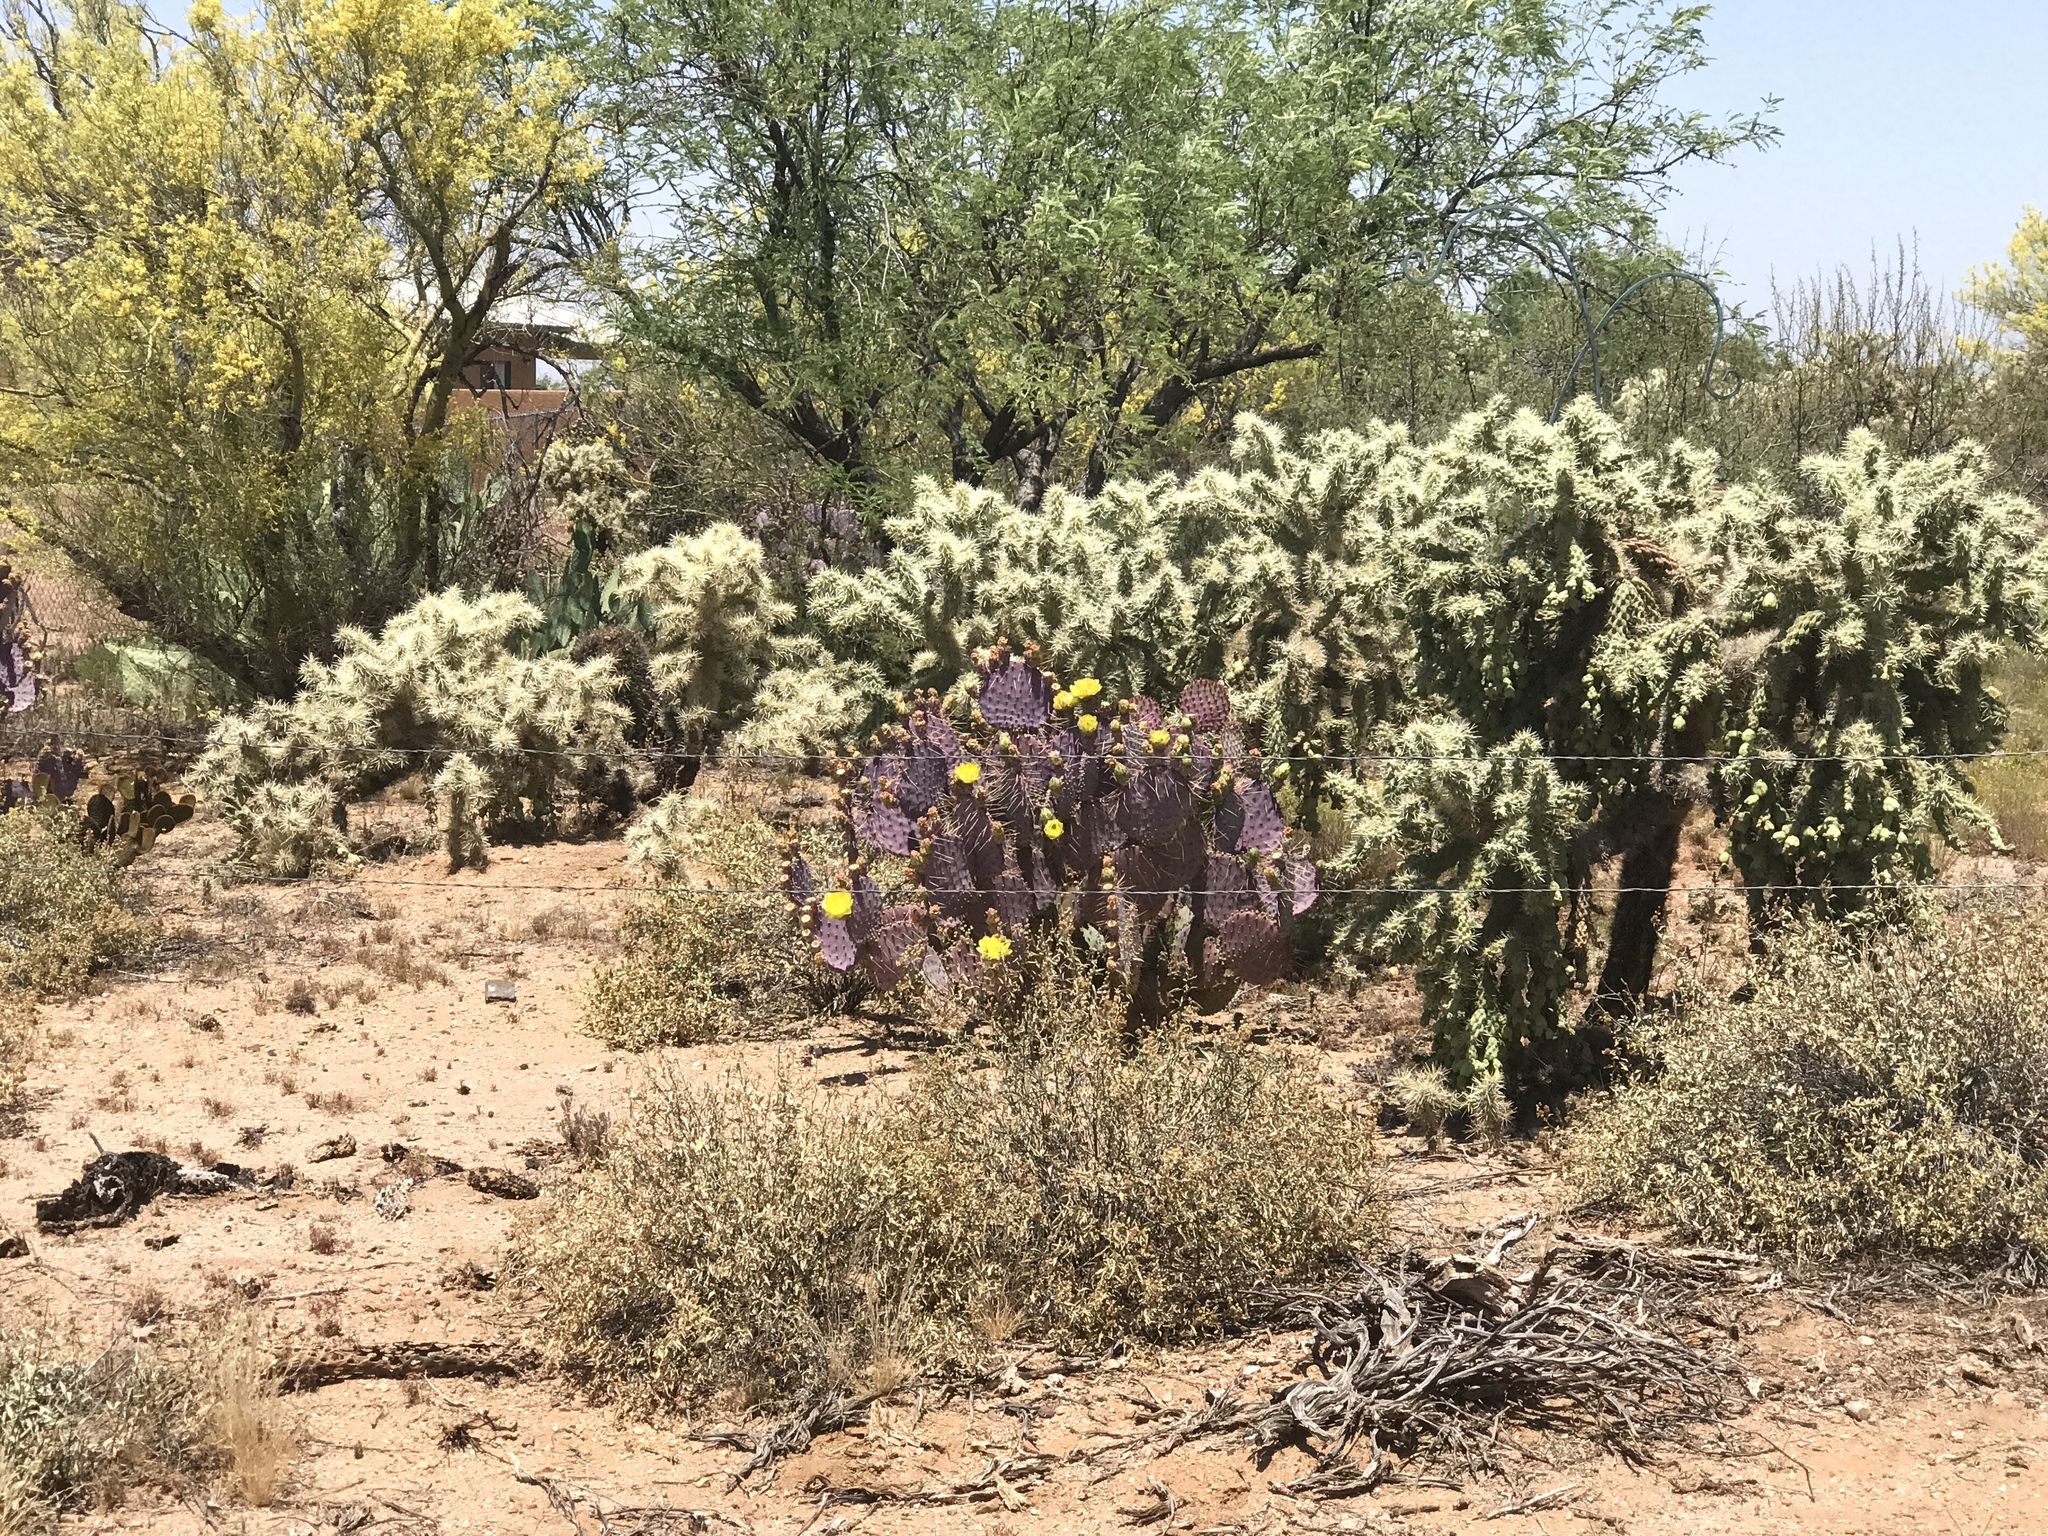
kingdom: Plantae
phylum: Tracheophyta
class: Magnoliopsida
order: Caryophyllales
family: Cactaceae
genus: Opuntia
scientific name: Opuntia gosseliniana
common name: Violet prickly-pear
